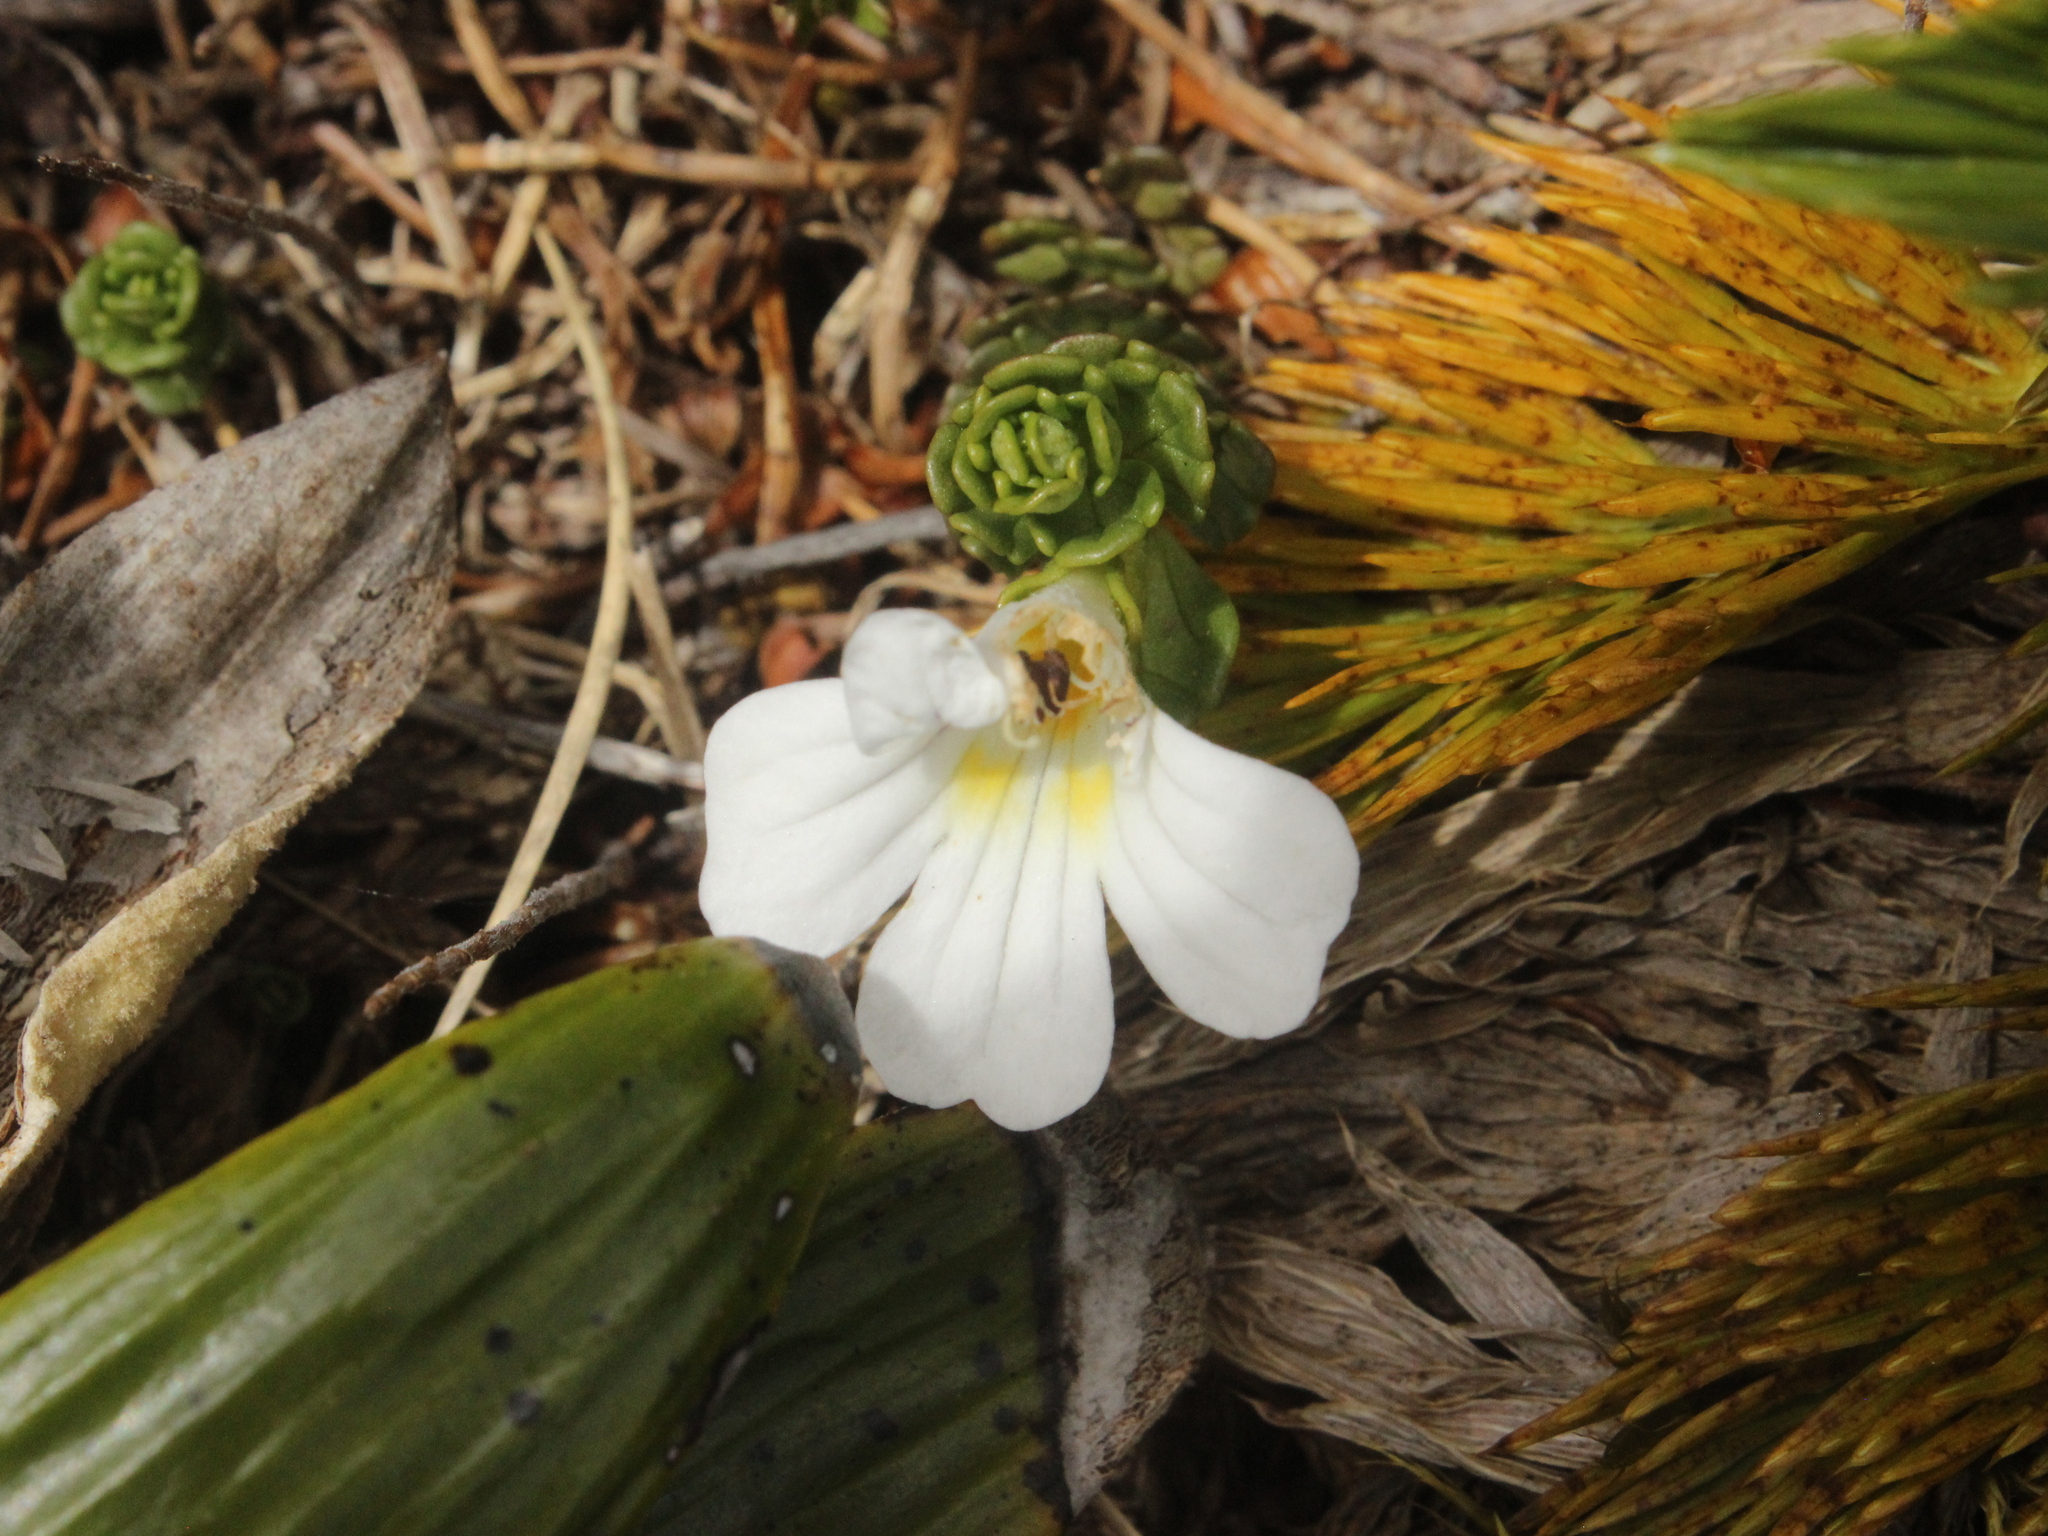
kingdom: Plantae
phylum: Tracheophyta
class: Magnoliopsida
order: Lamiales
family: Orobanchaceae
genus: Euphrasia
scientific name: Euphrasia drucei
